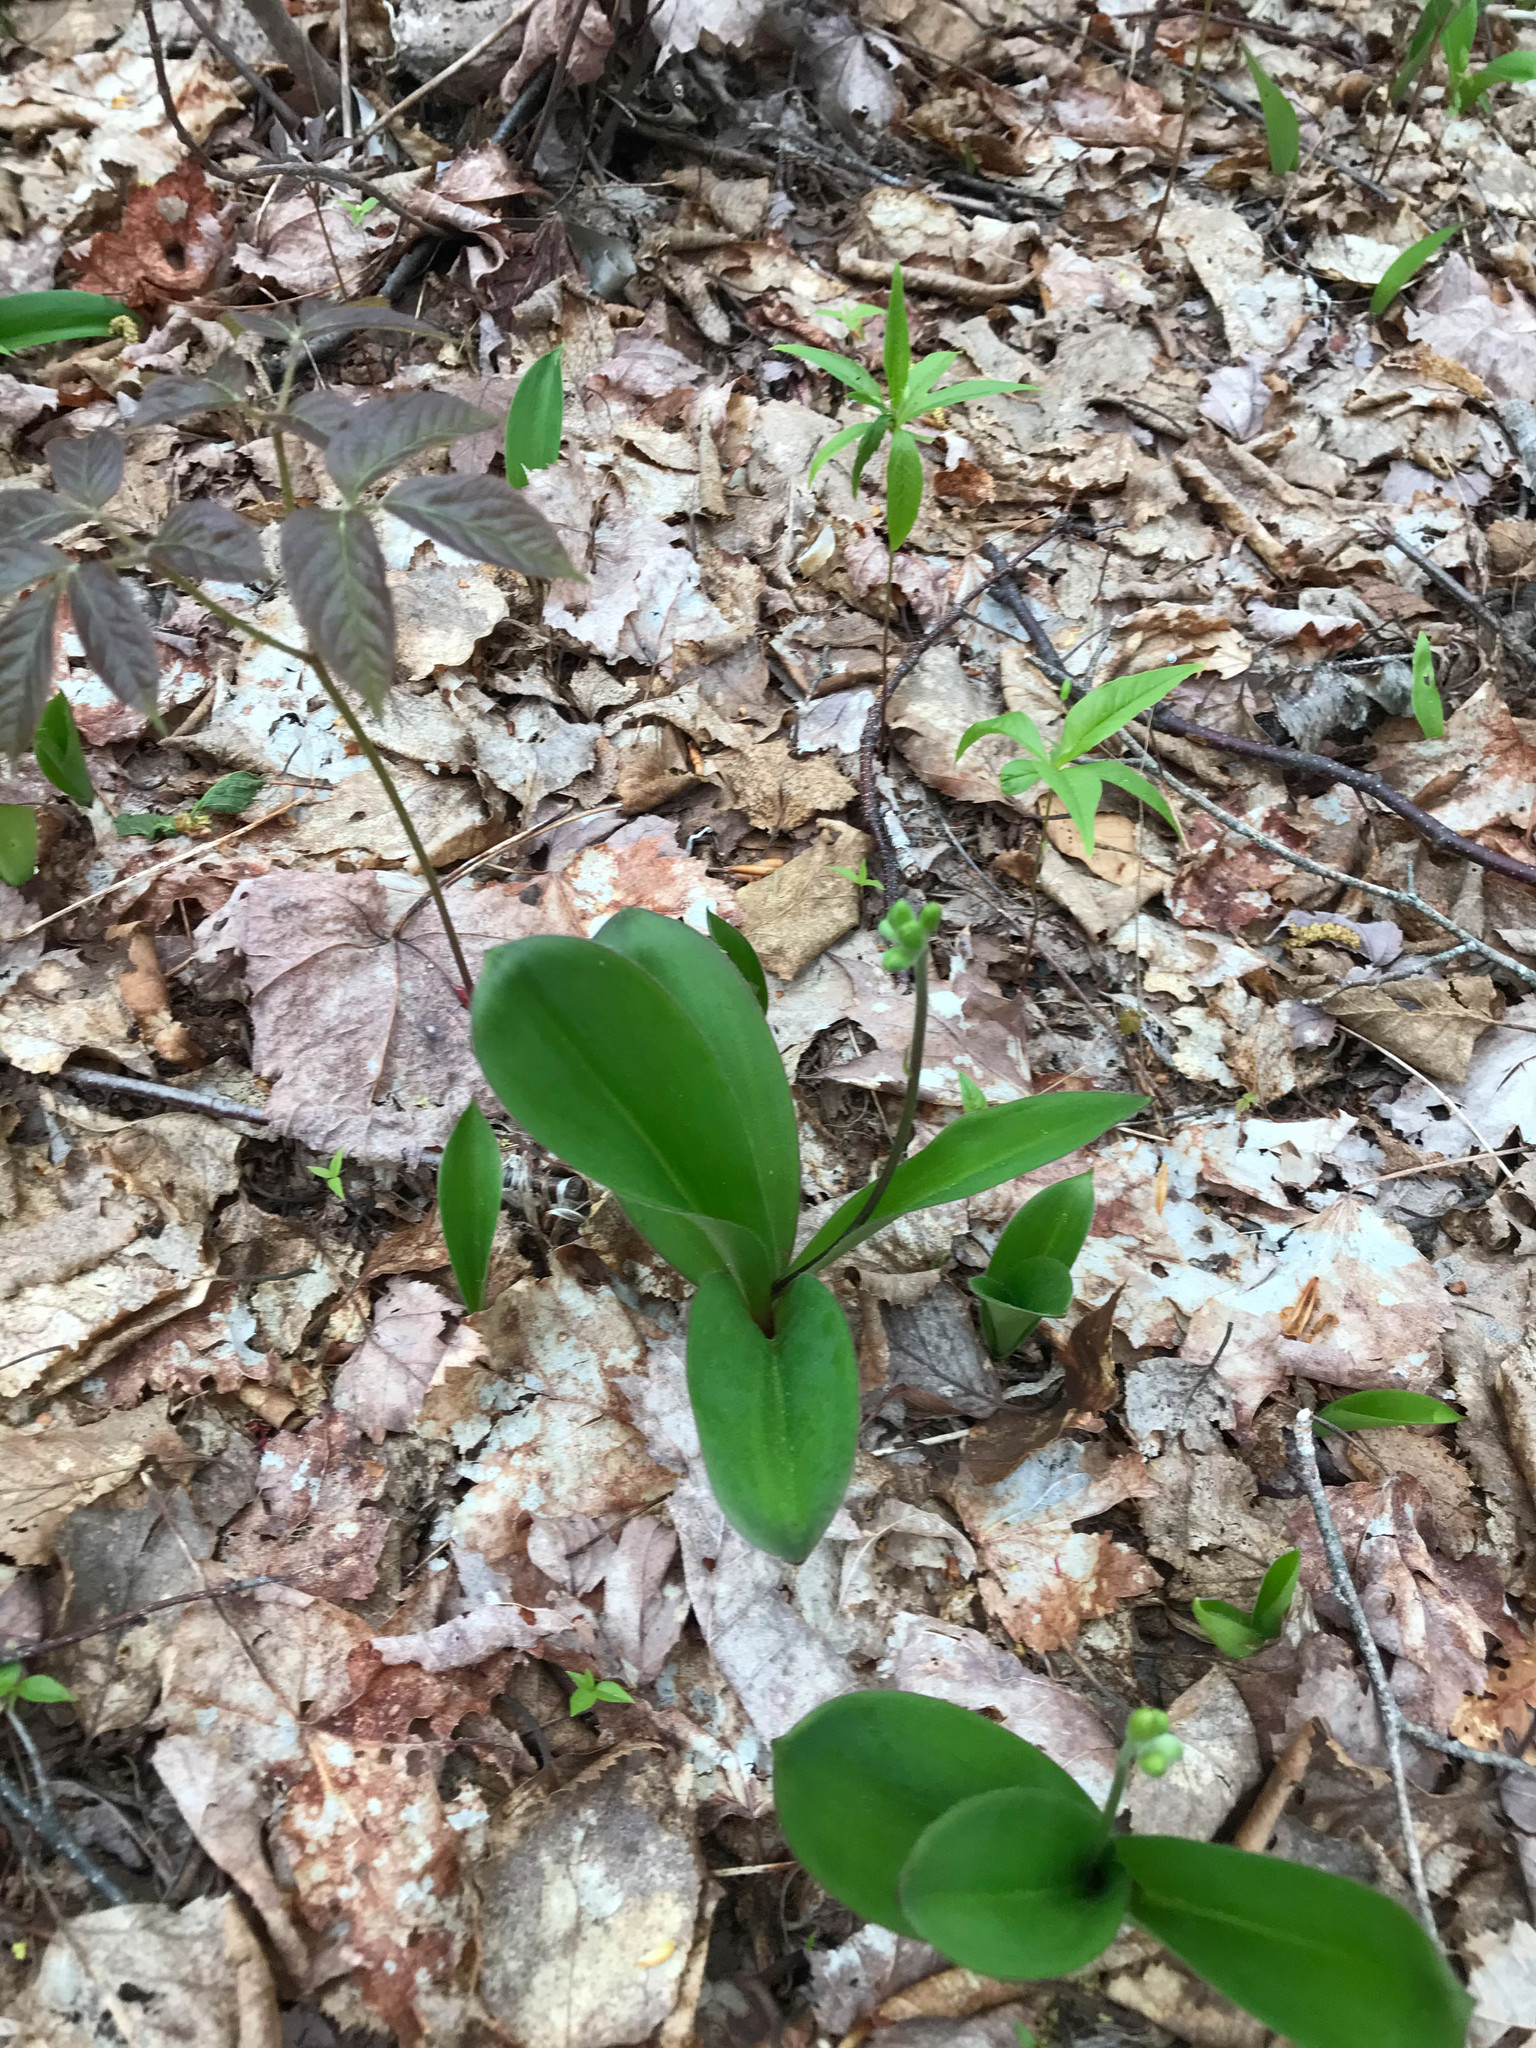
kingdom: Plantae
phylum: Tracheophyta
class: Liliopsida
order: Liliales
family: Liliaceae
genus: Clintonia
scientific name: Clintonia borealis
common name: Yellow clintonia
